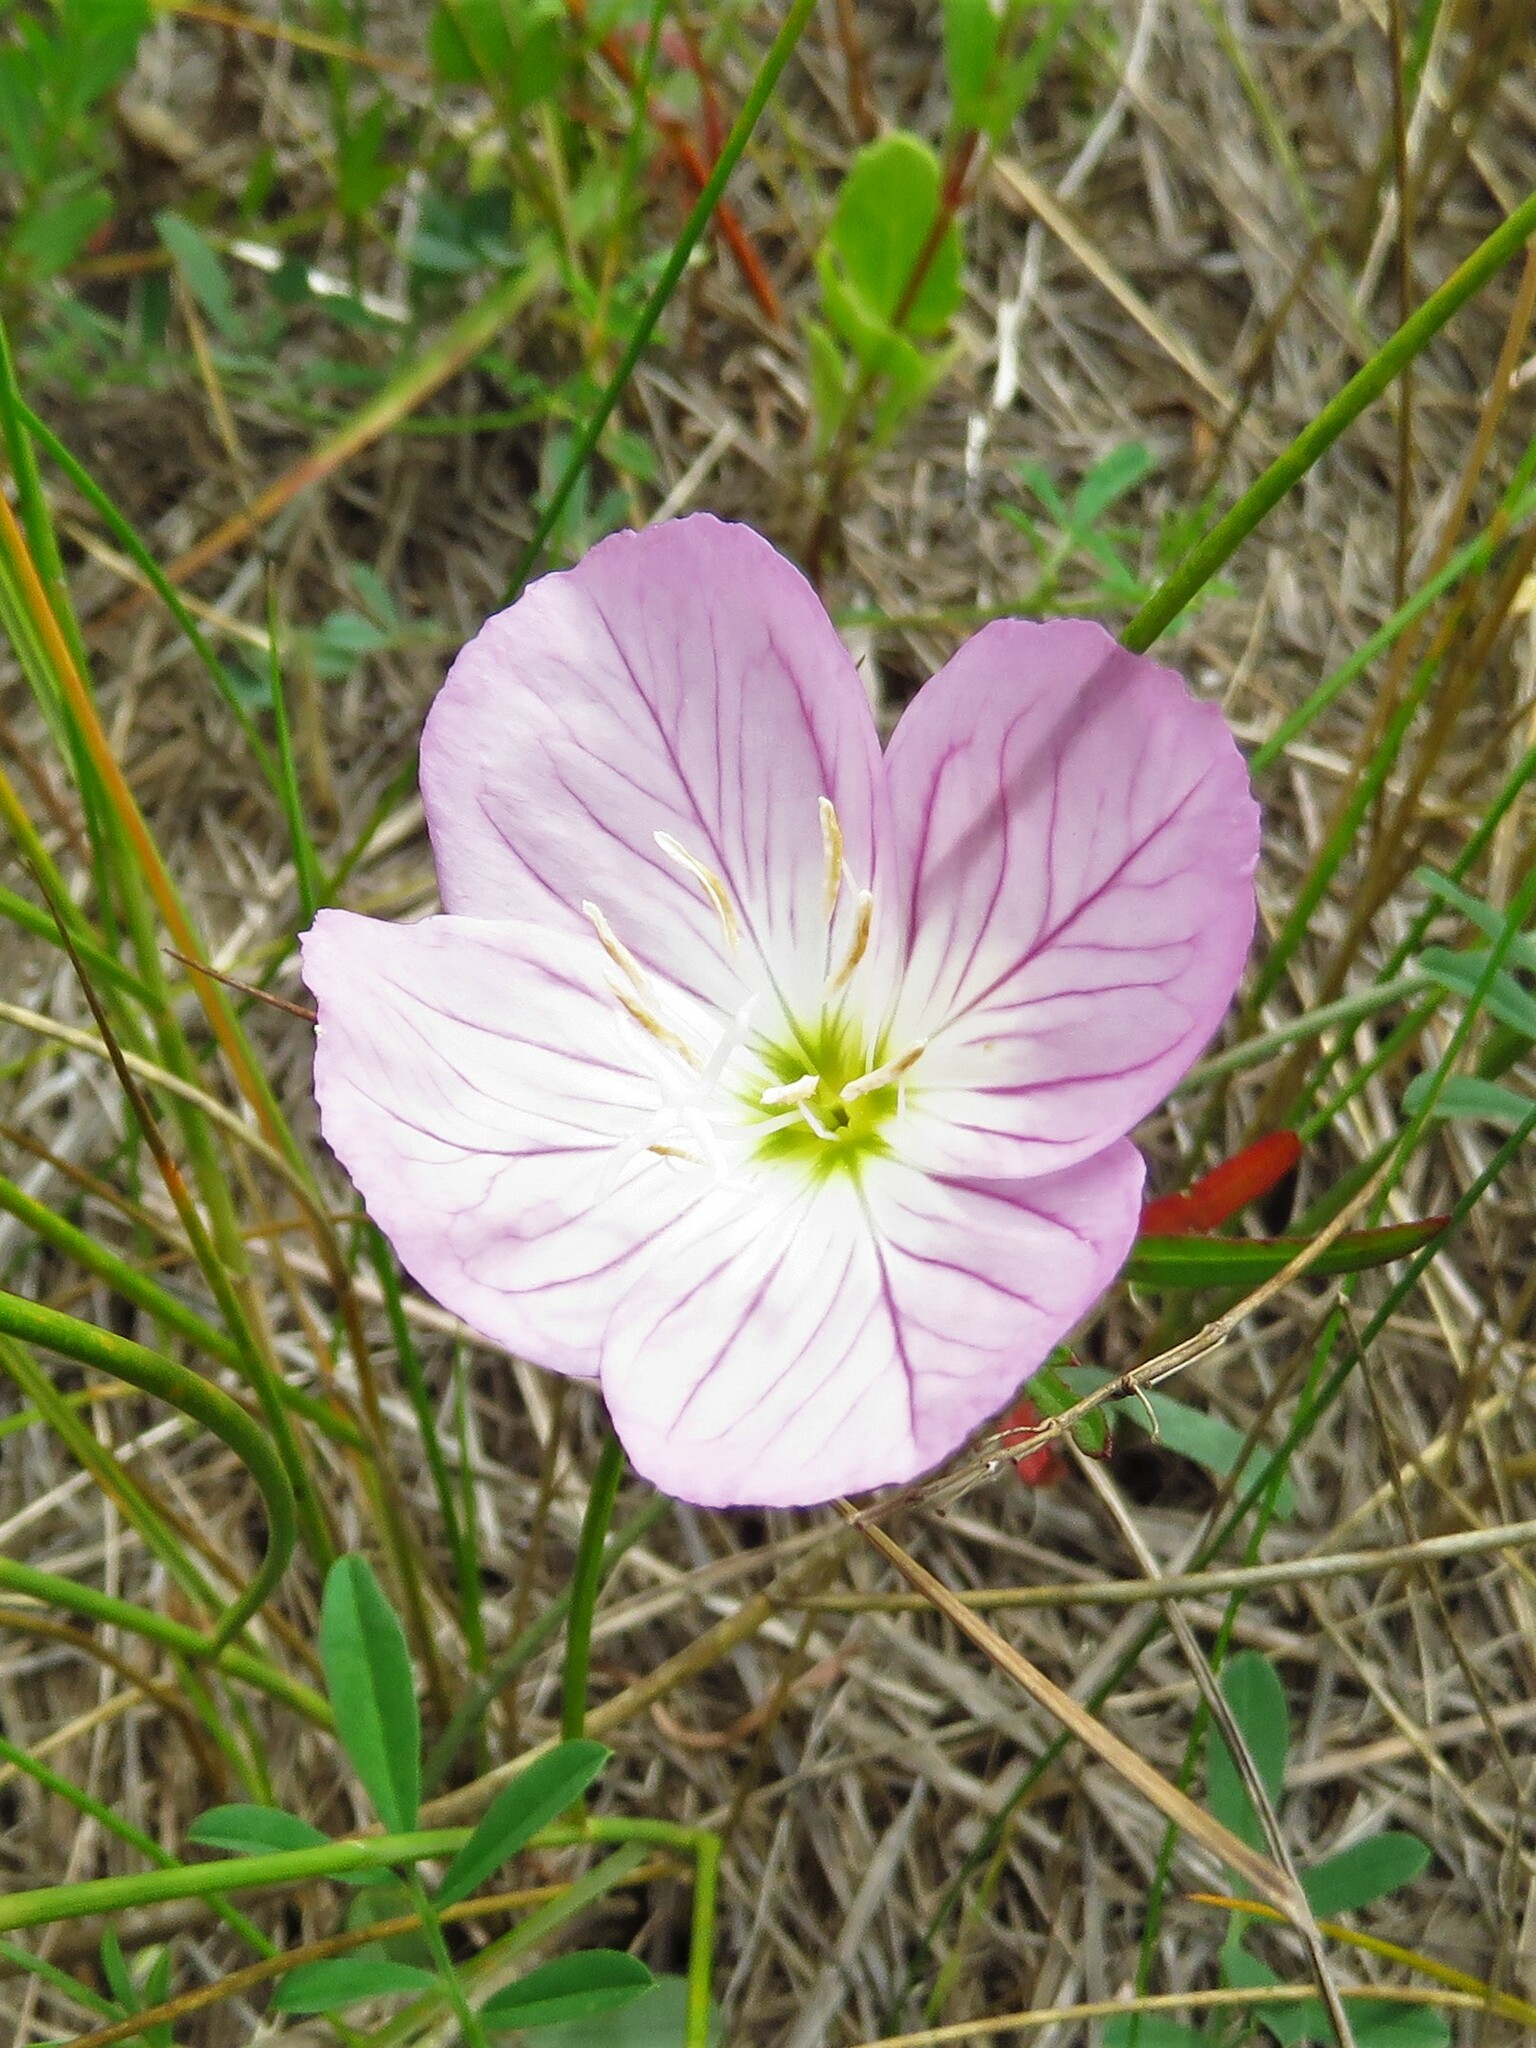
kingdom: Plantae
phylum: Tracheophyta
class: Magnoliopsida
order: Myrtales
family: Onagraceae
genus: Oenothera
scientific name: Oenothera speciosa
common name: White evening-primrose
